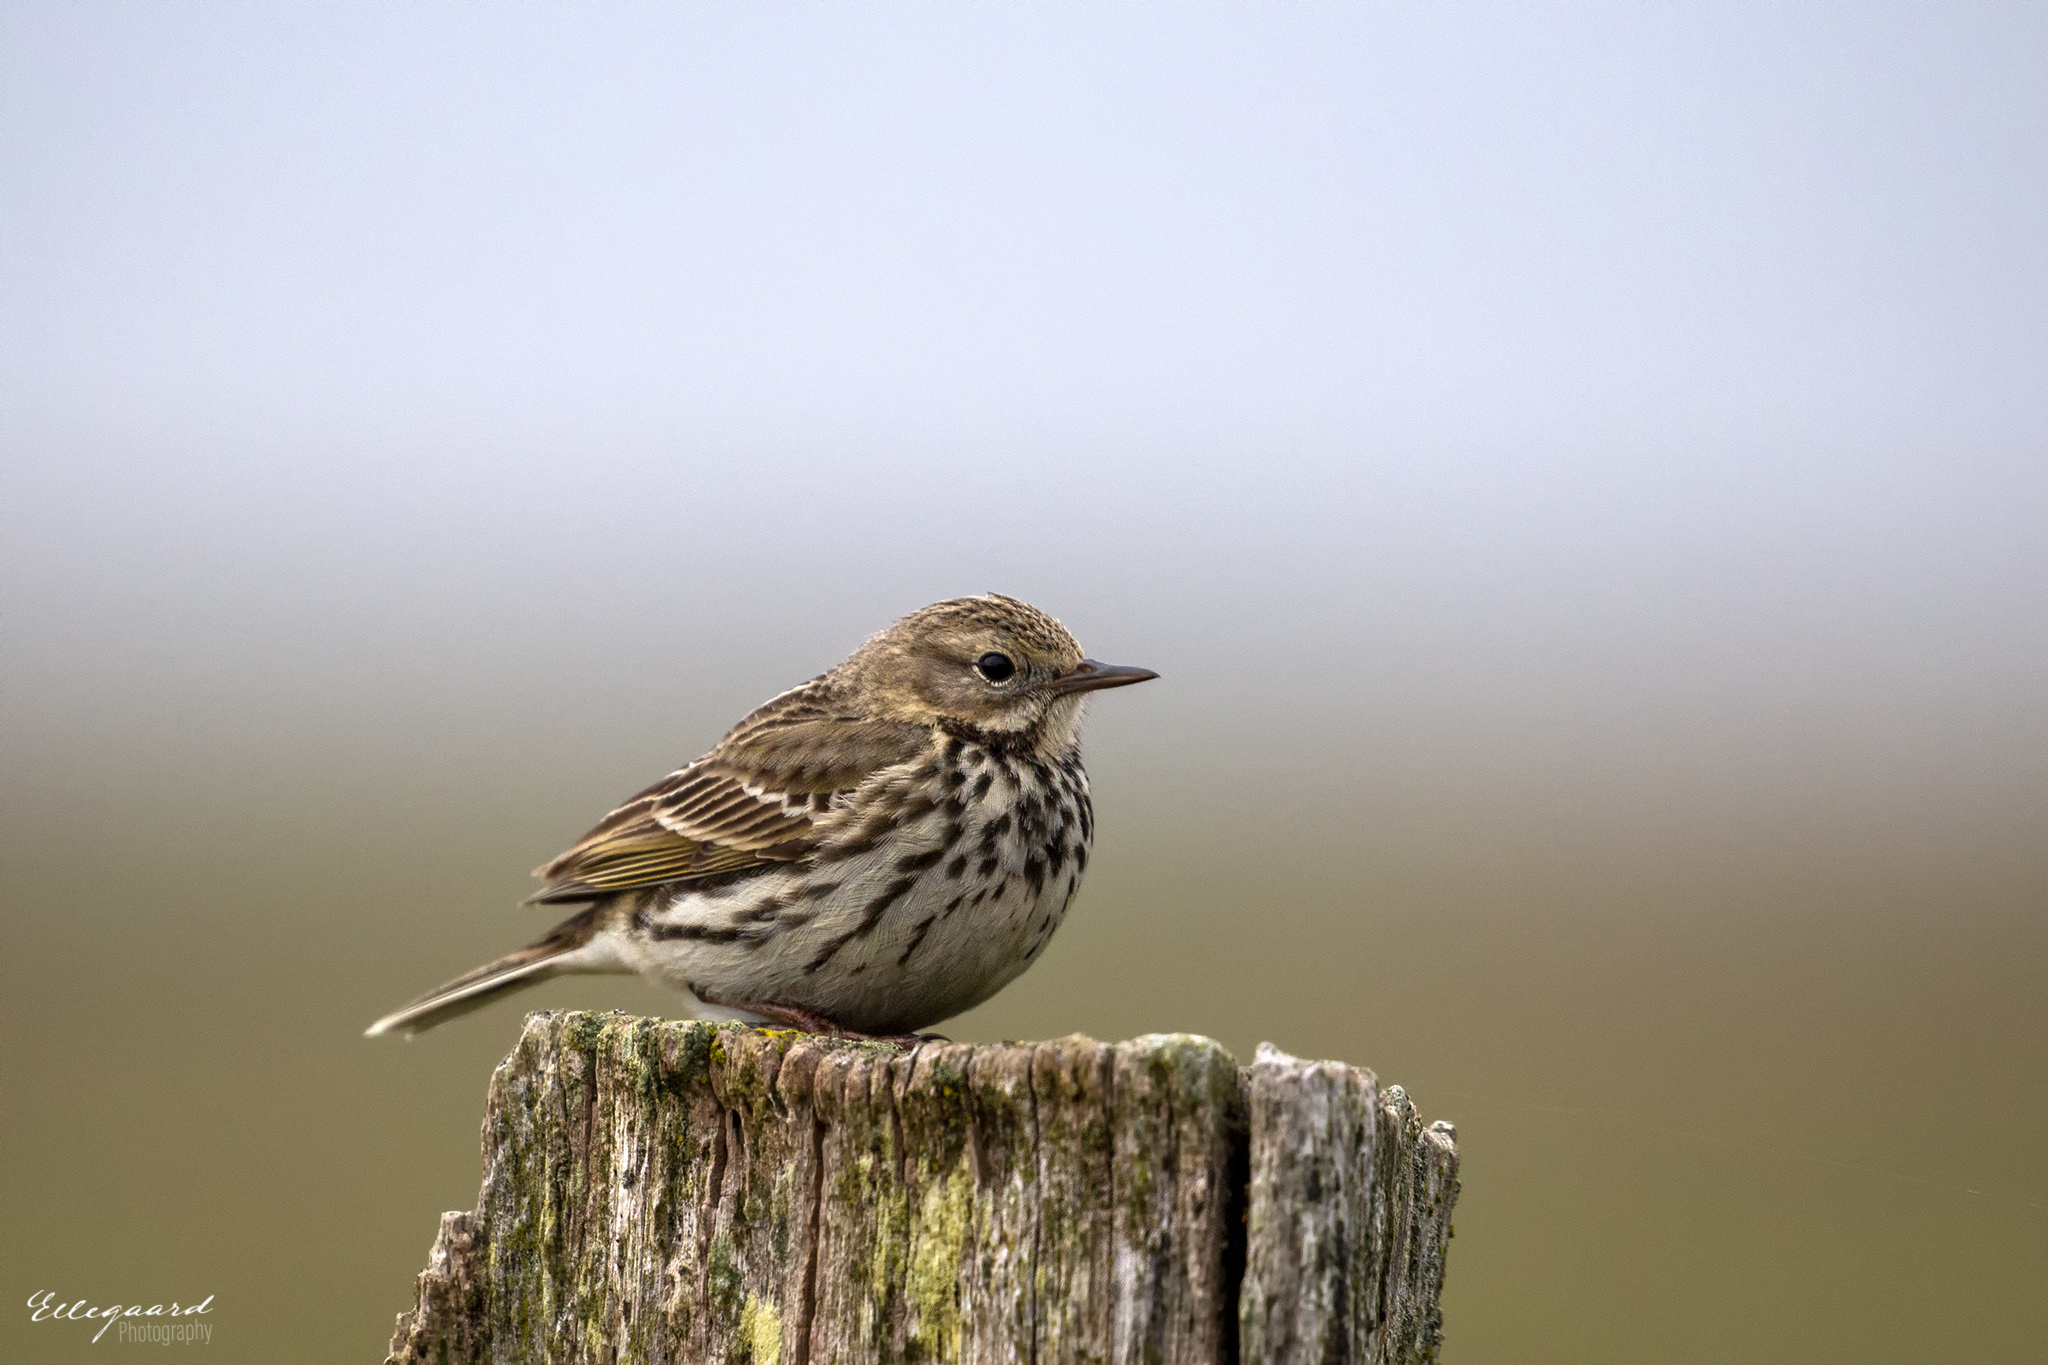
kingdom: Animalia
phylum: Chordata
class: Aves
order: Passeriformes
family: Motacillidae
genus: Anthus
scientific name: Anthus pratensis
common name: Meadow pipit
